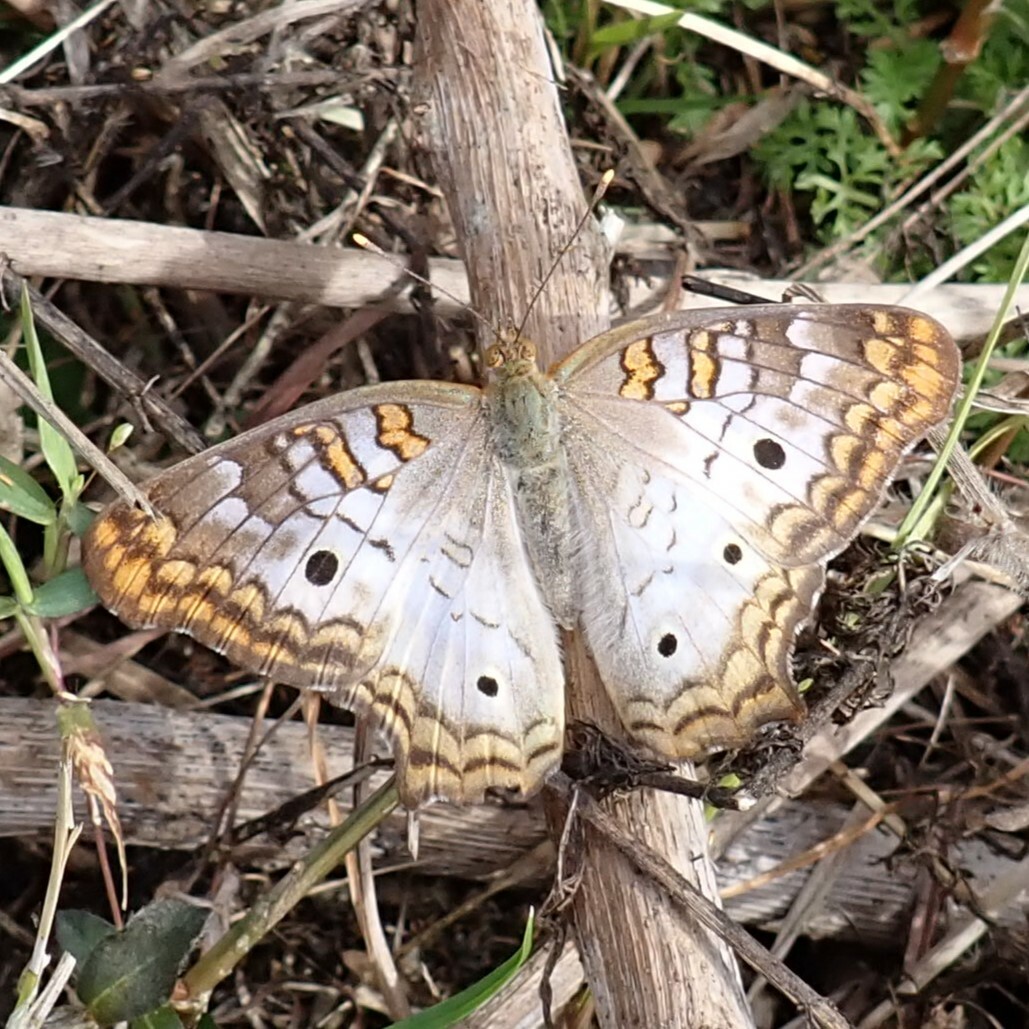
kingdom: Animalia
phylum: Arthropoda
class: Insecta
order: Lepidoptera
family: Nymphalidae
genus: Anartia
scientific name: Anartia jatrophae
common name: White peacock
